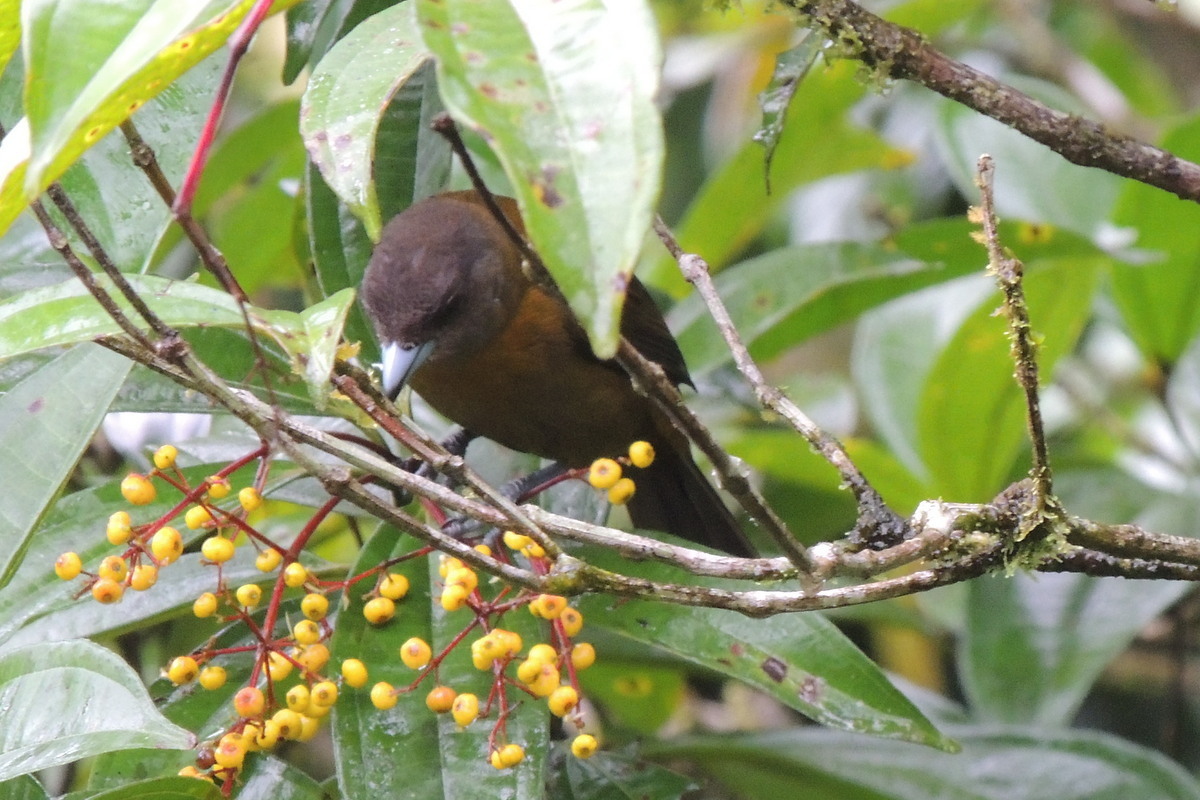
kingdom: Animalia
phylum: Chordata
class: Aves
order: Passeriformes
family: Thraupidae
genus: Ramphocelus
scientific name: Ramphocelus passerinii
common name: Passerini's tanager
